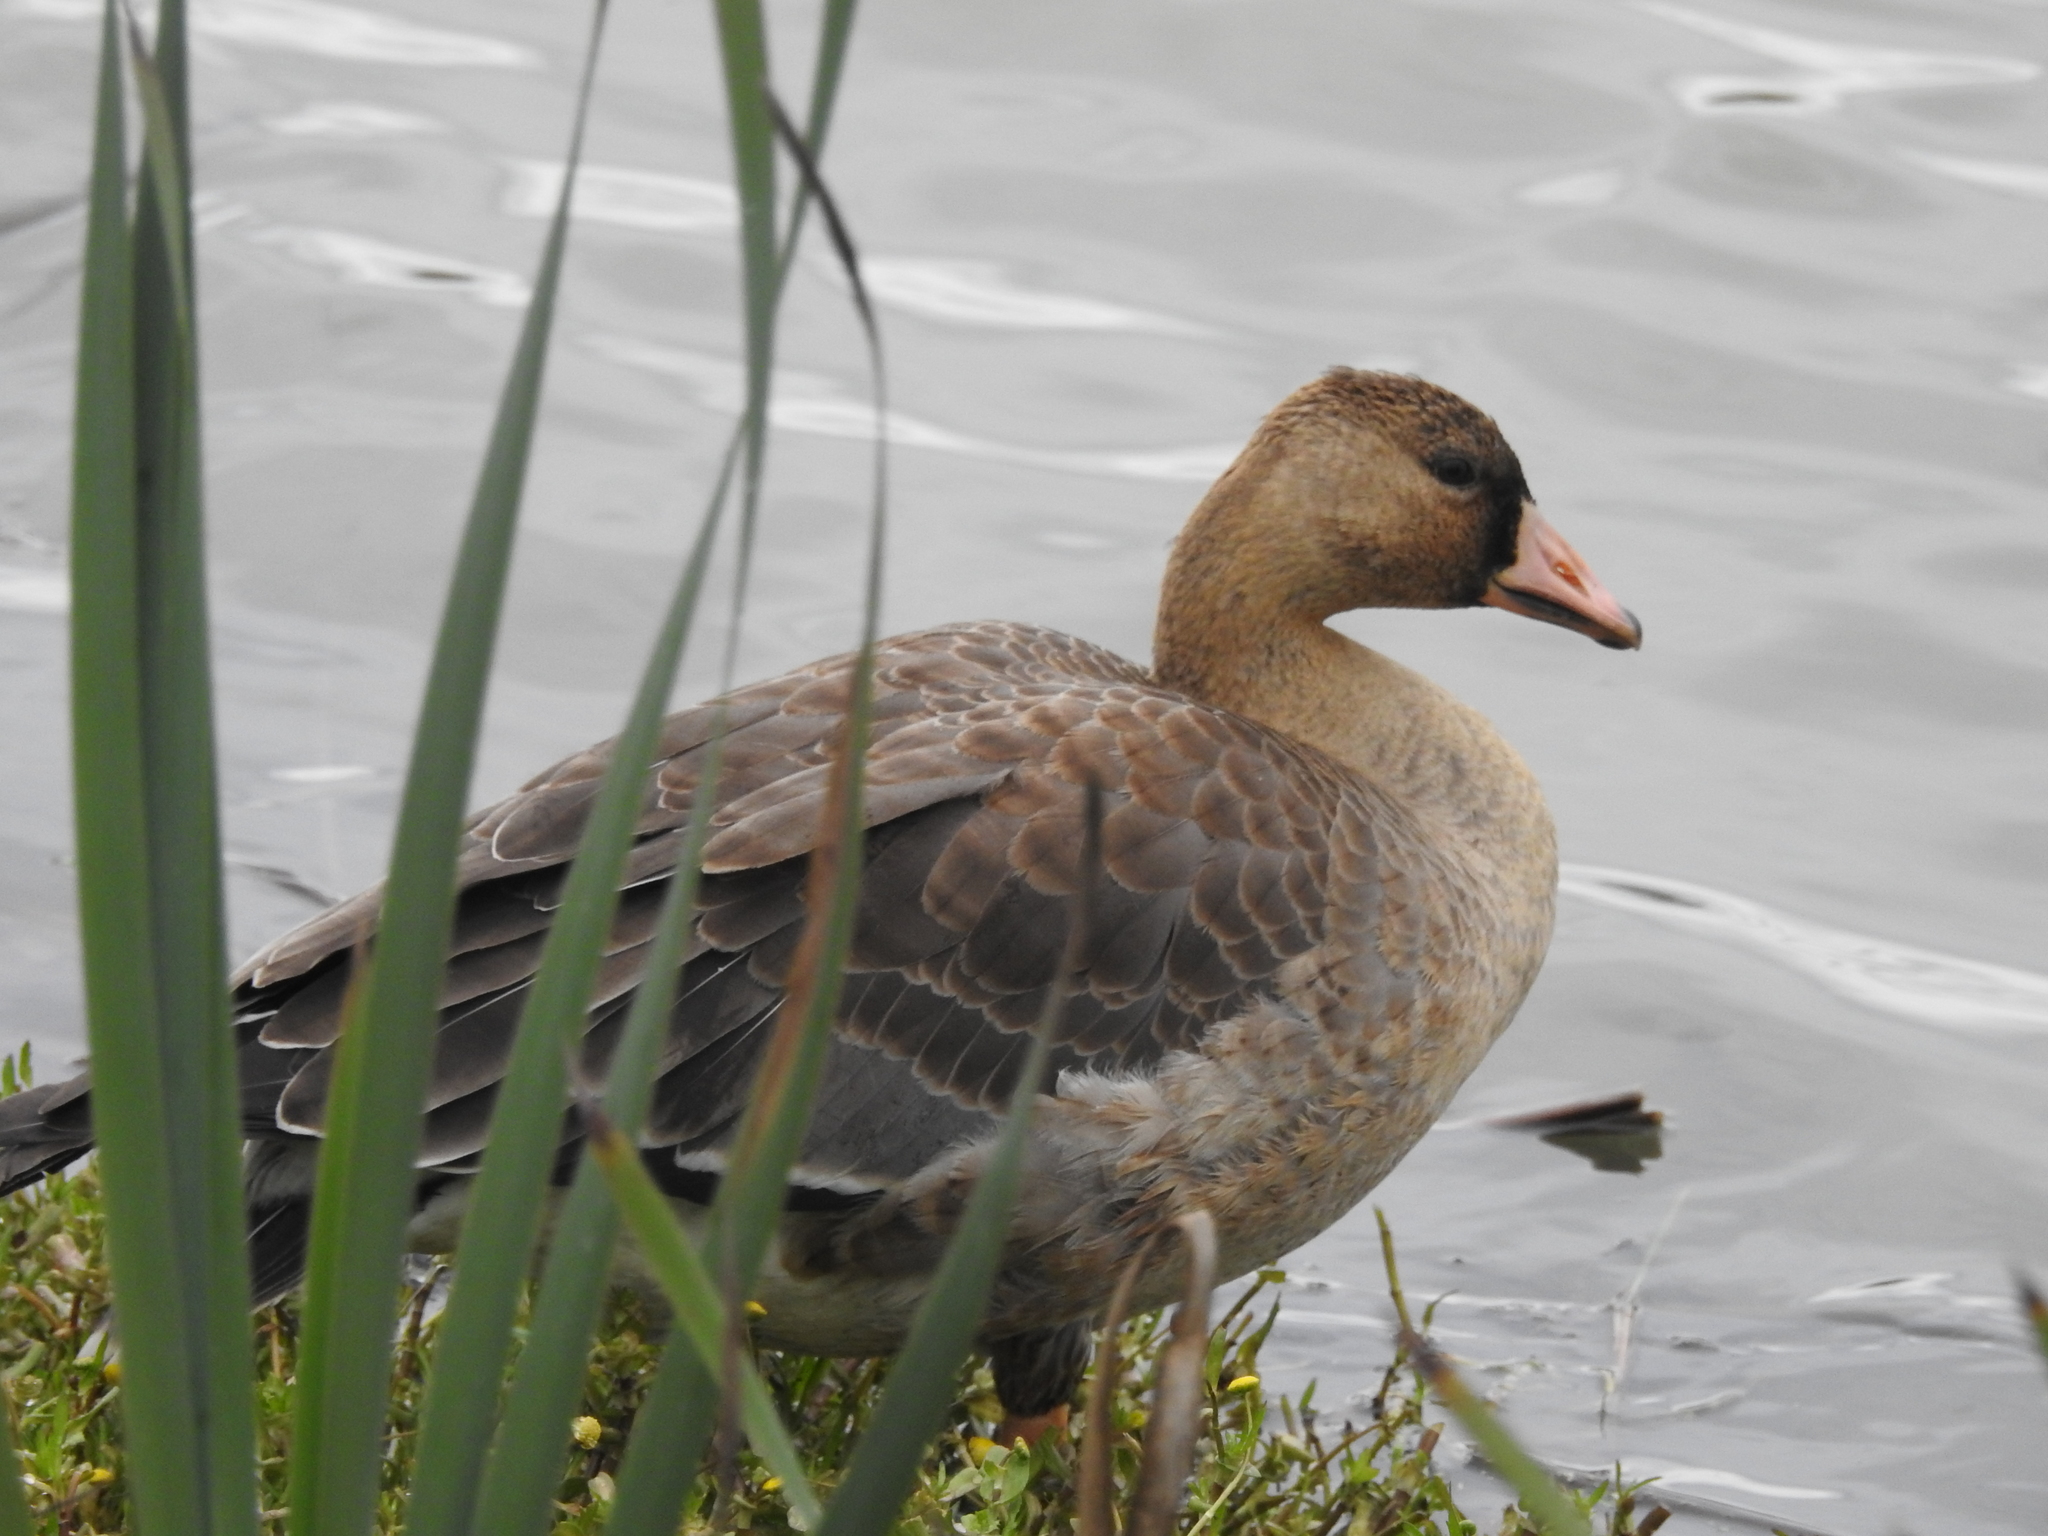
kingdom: Animalia
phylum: Chordata
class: Aves
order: Anseriformes
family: Anatidae
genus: Anser
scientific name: Anser albifrons
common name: Greater white-fronted goose
